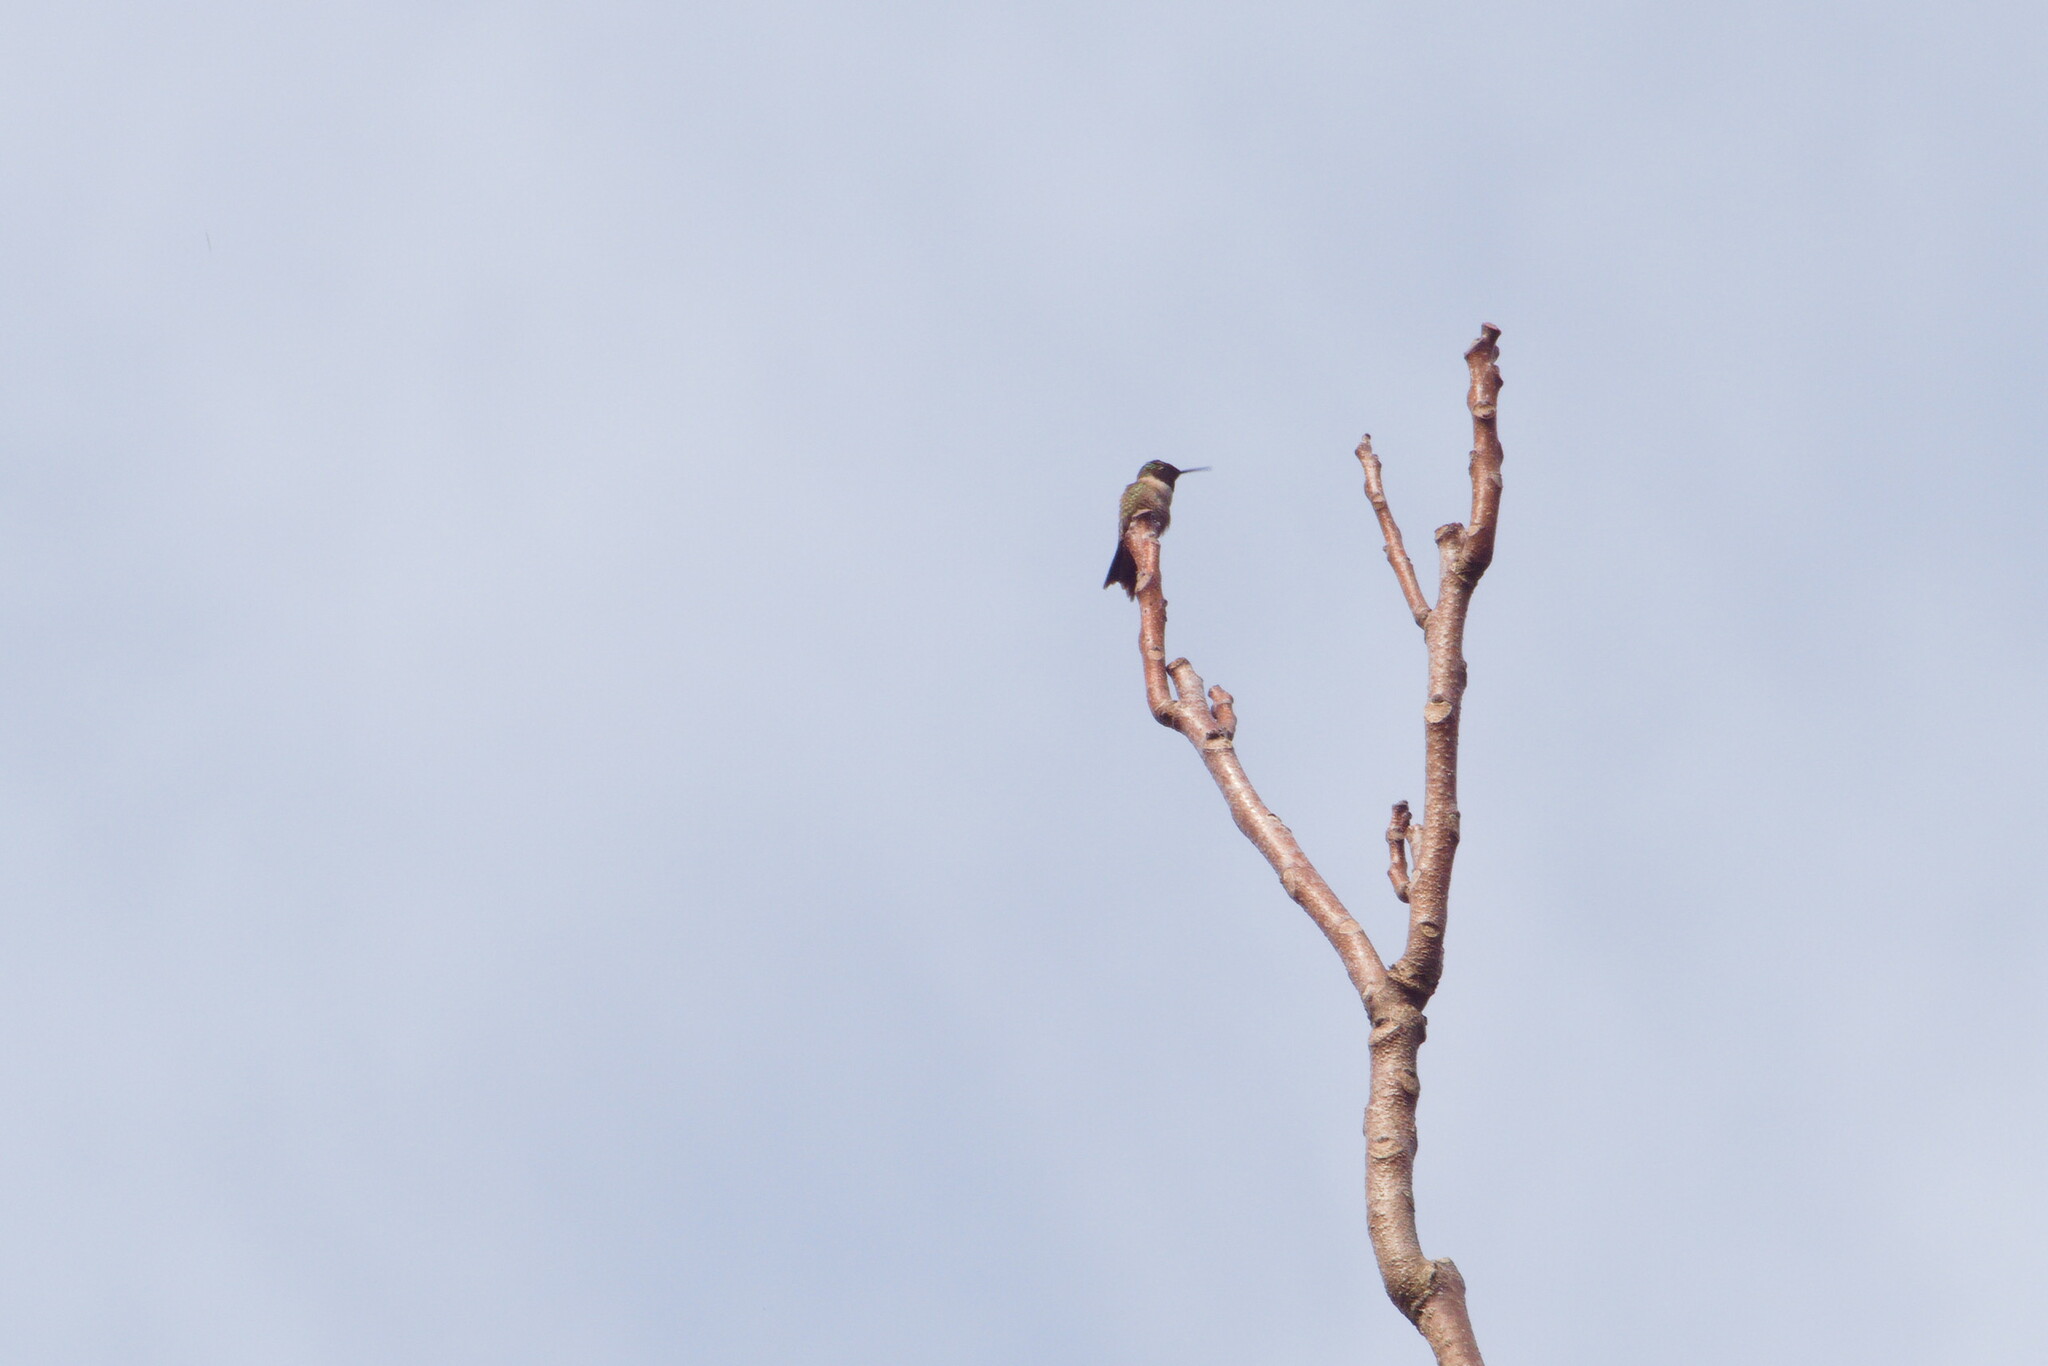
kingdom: Animalia
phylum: Chordata
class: Aves
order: Apodiformes
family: Trochilidae
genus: Archilochus
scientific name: Archilochus colubris
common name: Ruby-throated hummingbird
